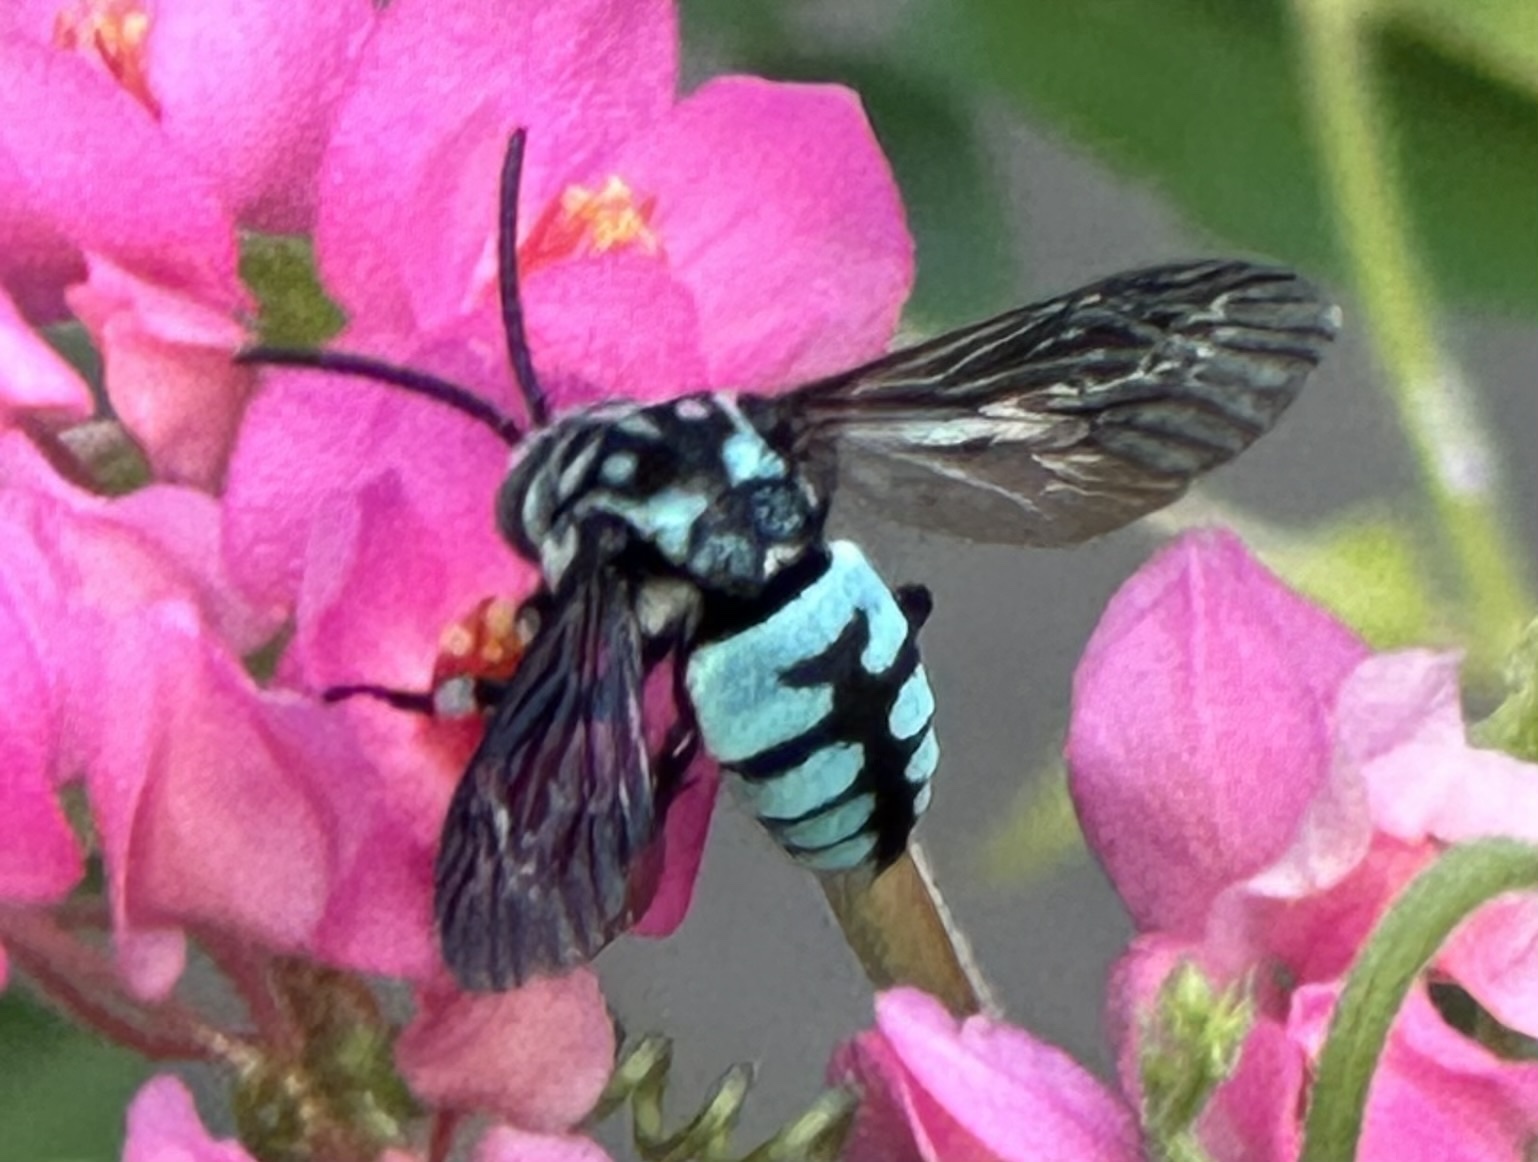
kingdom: Animalia
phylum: Arthropoda
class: Insecta
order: Hymenoptera
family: Apidae
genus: Thyreus
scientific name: Thyreus himalayensis
